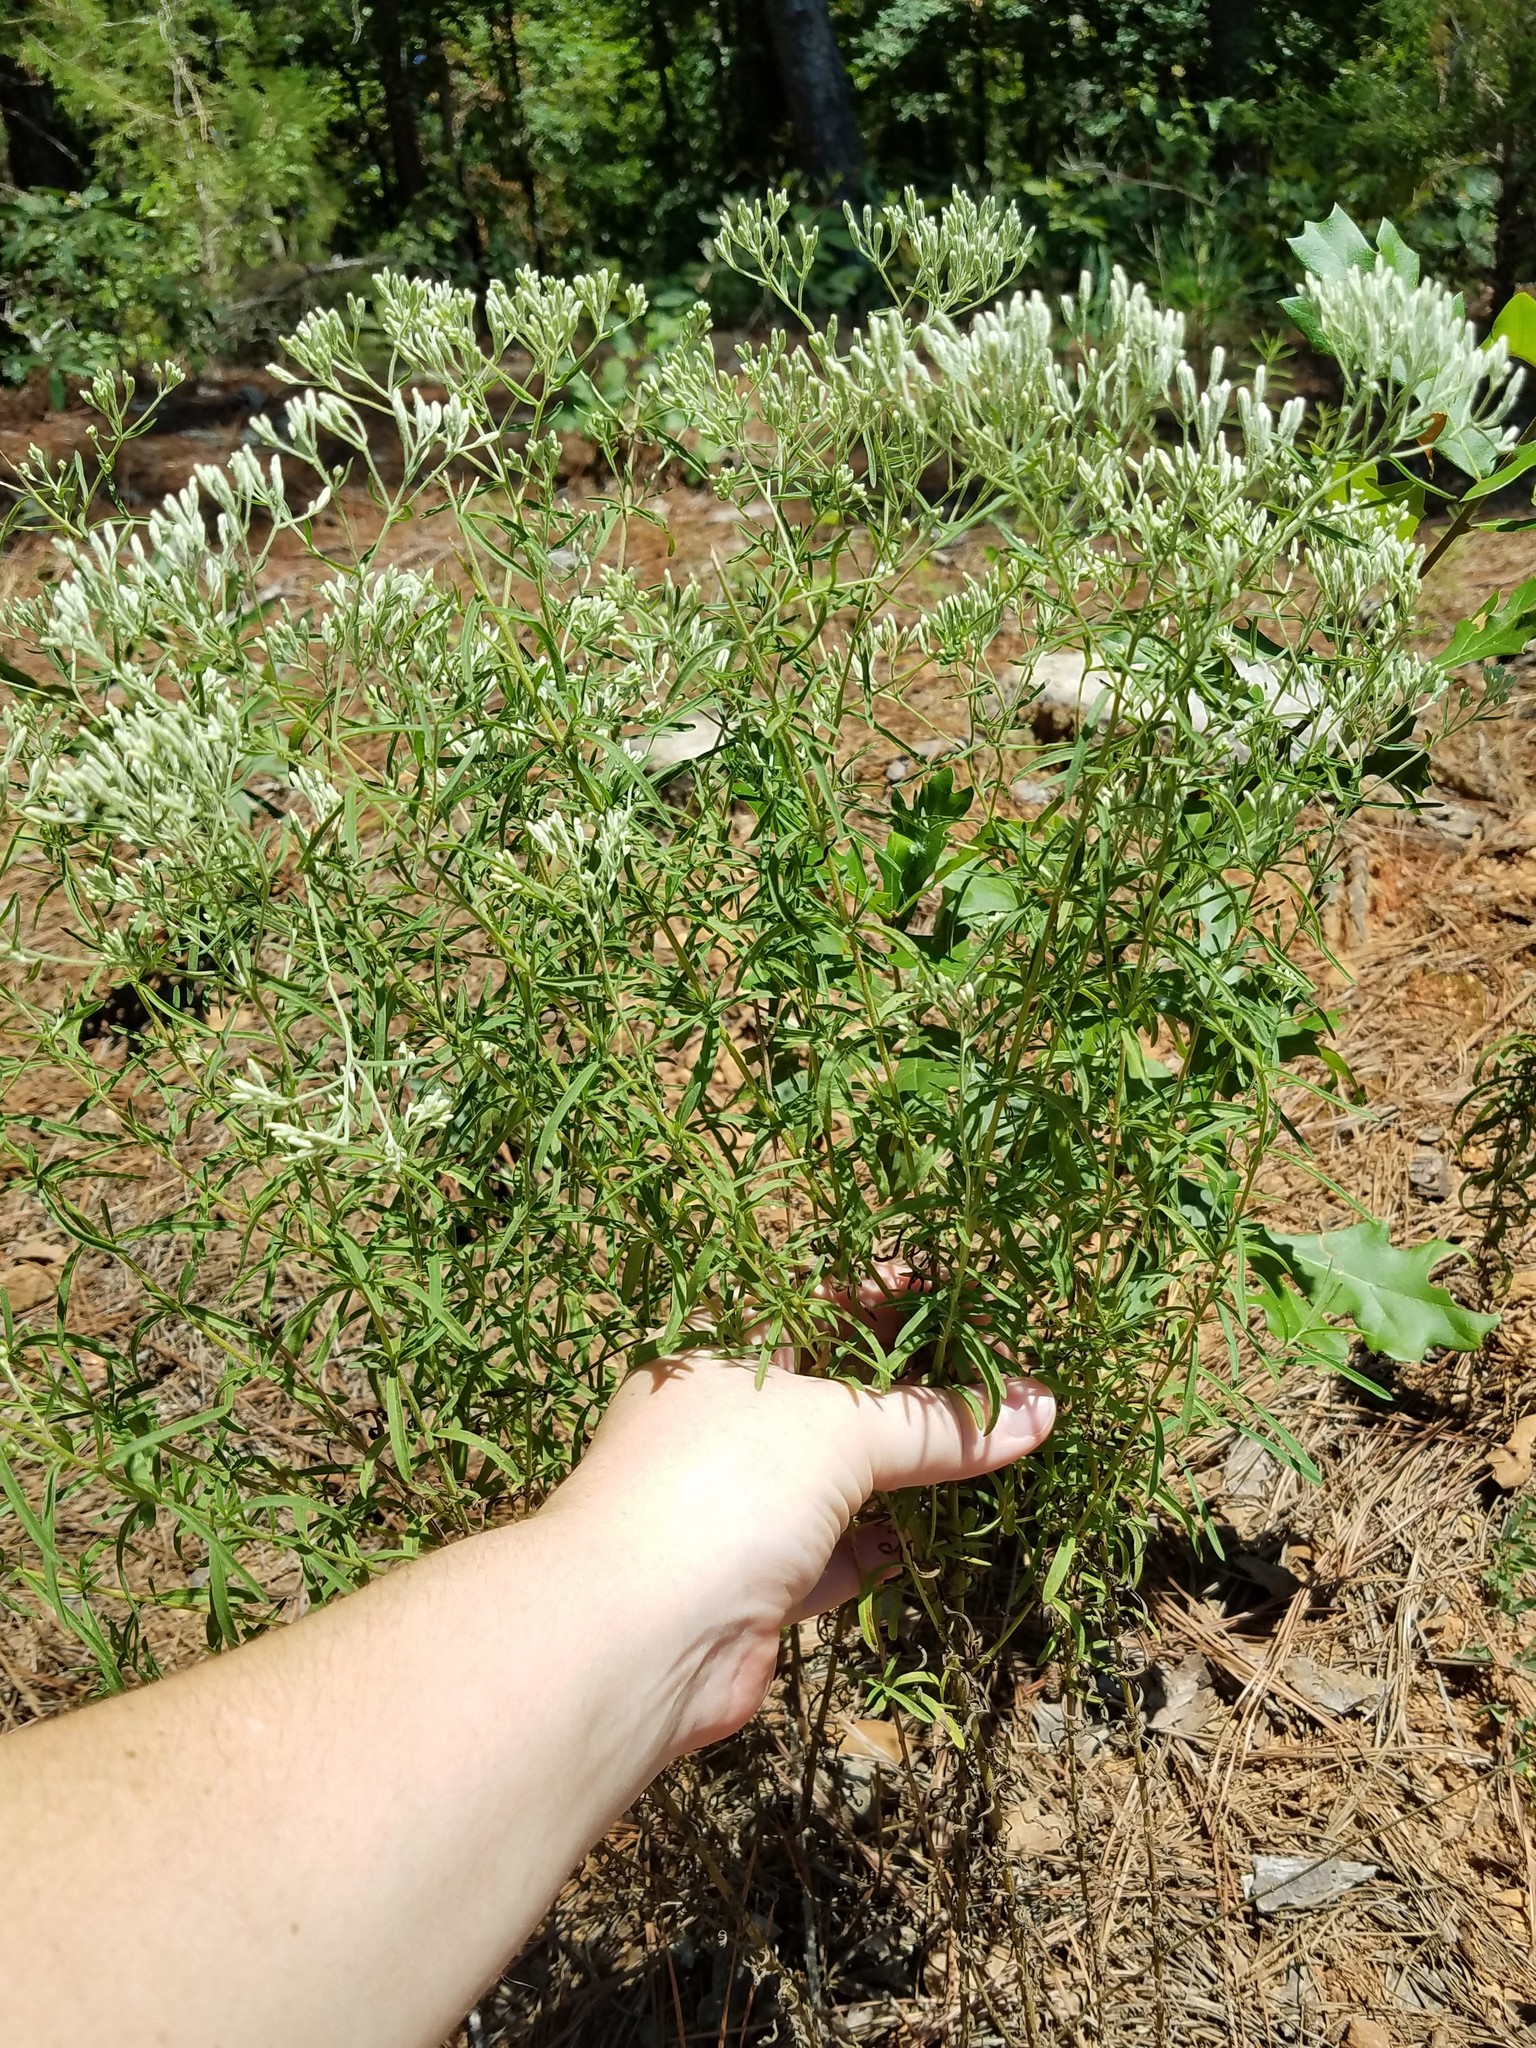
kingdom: Plantae
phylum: Tracheophyta
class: Magnoliopsida
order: Asterales
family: Asteraceae
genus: Eupatorium
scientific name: Eupatorium hyssopifolium
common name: Hyssop-leaf thoroughwort
